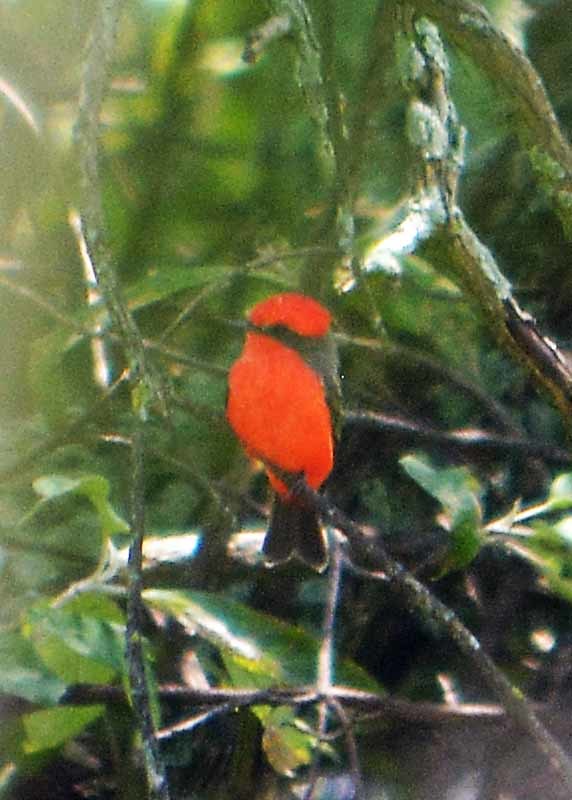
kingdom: Animalia
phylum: Chordata
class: Aves
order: Passeriformes
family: Tyrannidae
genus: Pyrocephalus
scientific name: Pyrocephalus rubinus
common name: Vermilion flycatcher
